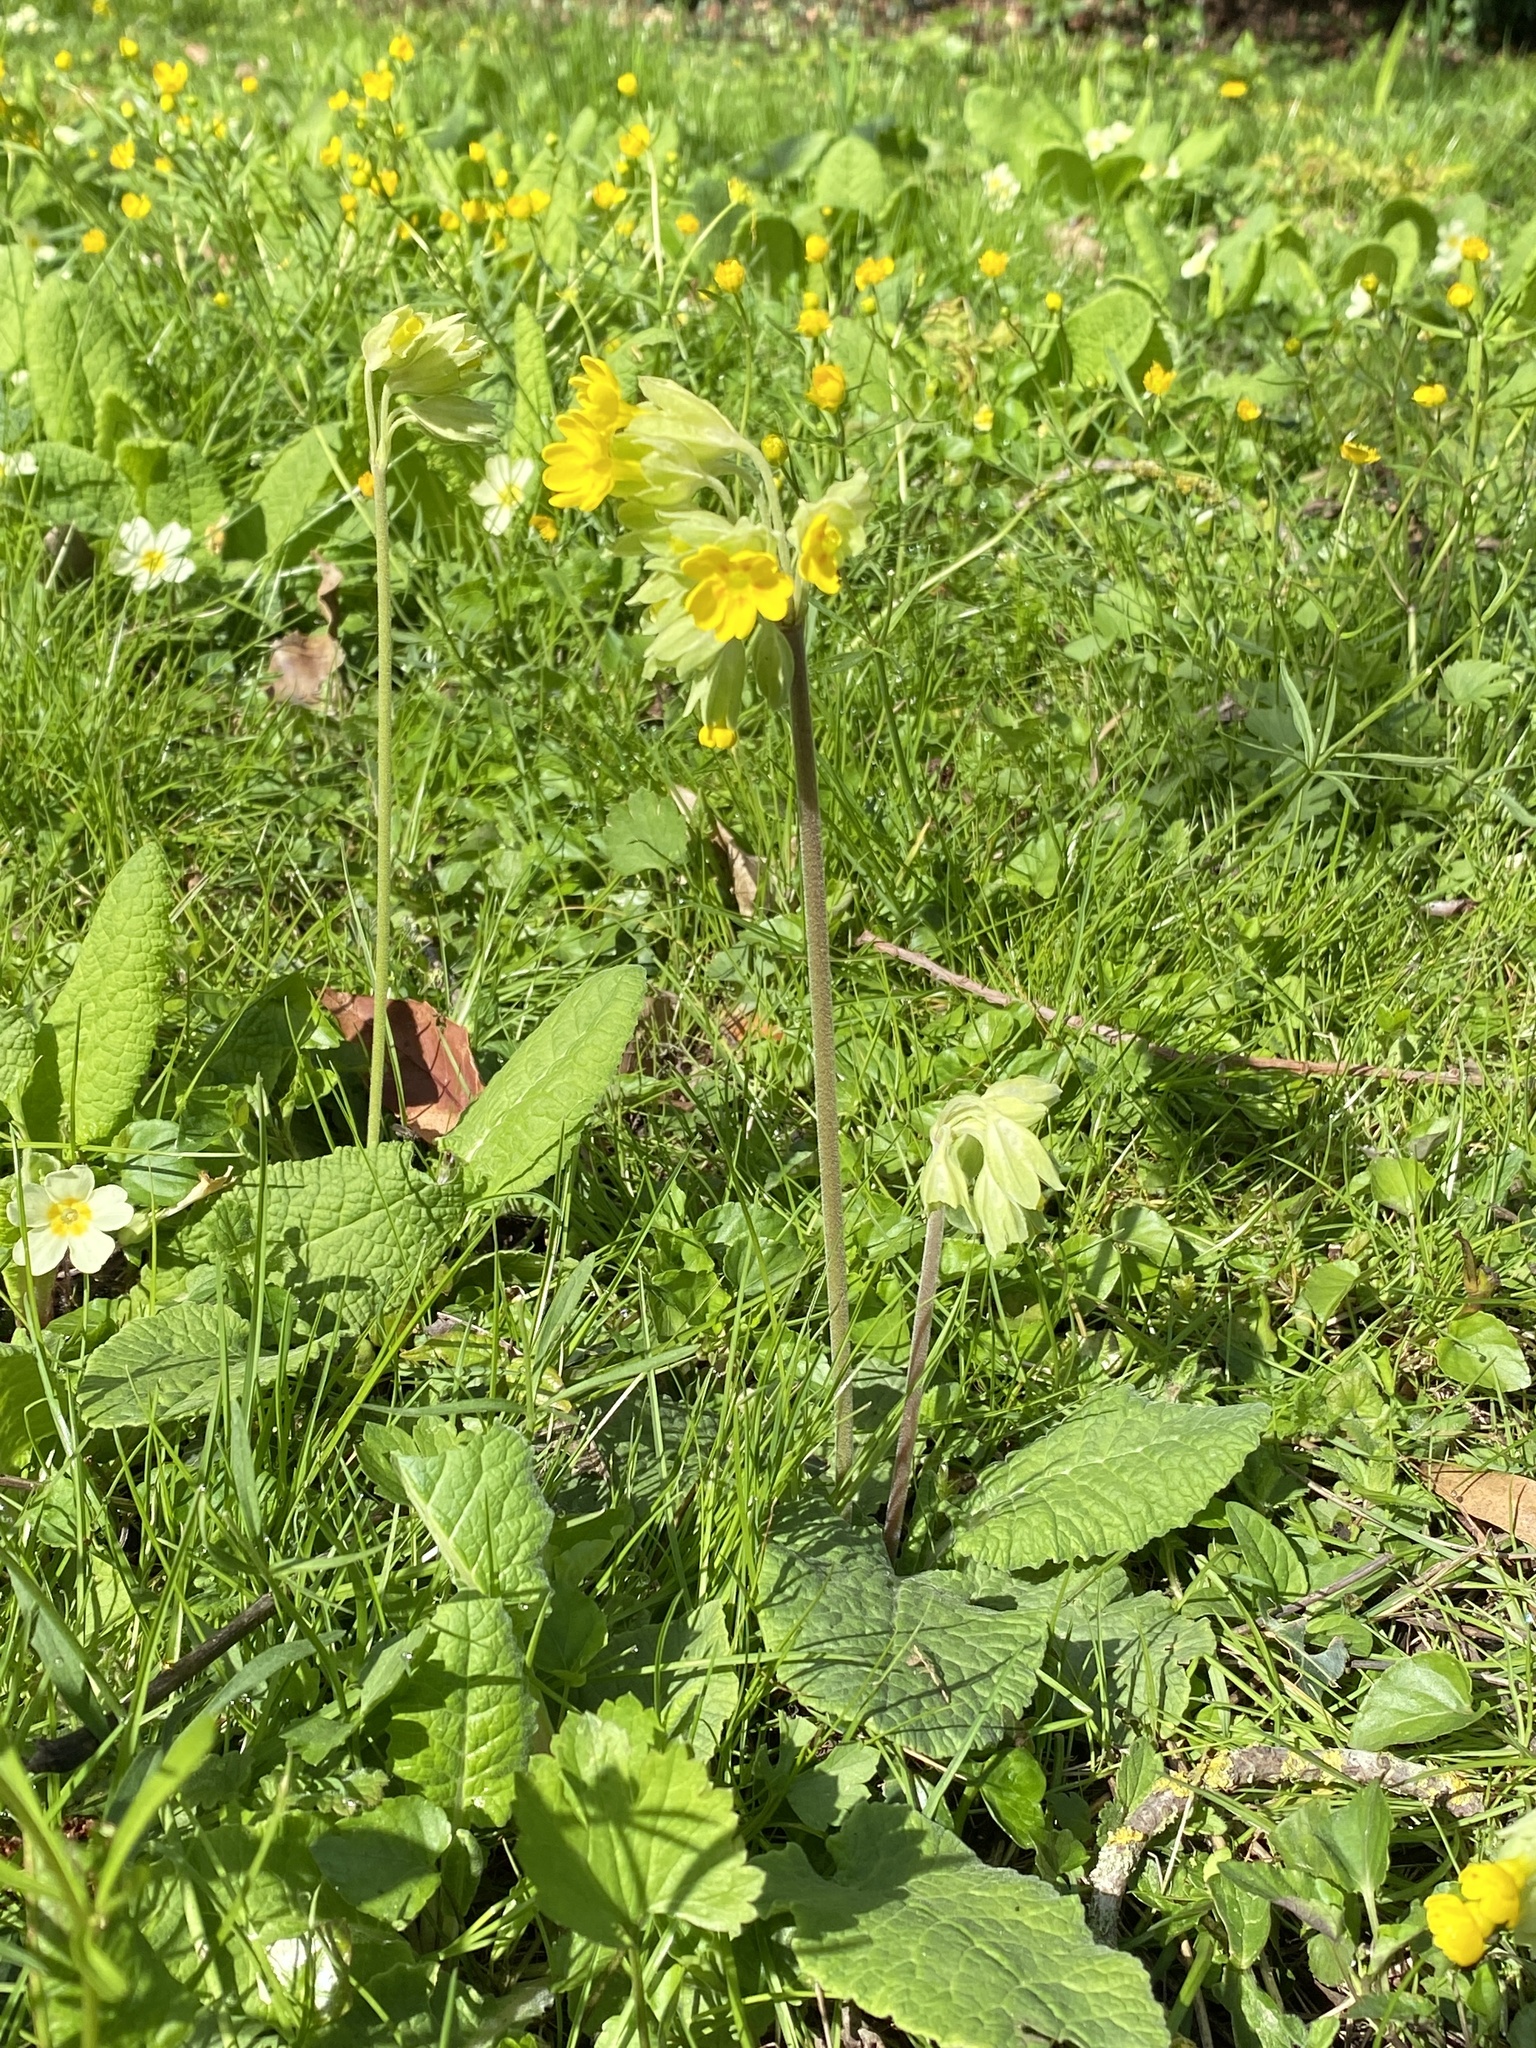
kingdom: Plantae
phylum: Tracheophyta
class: Magnoliopsida
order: Ericales
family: Primulaceae
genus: Primula
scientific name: Primula veris
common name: Cowslip
